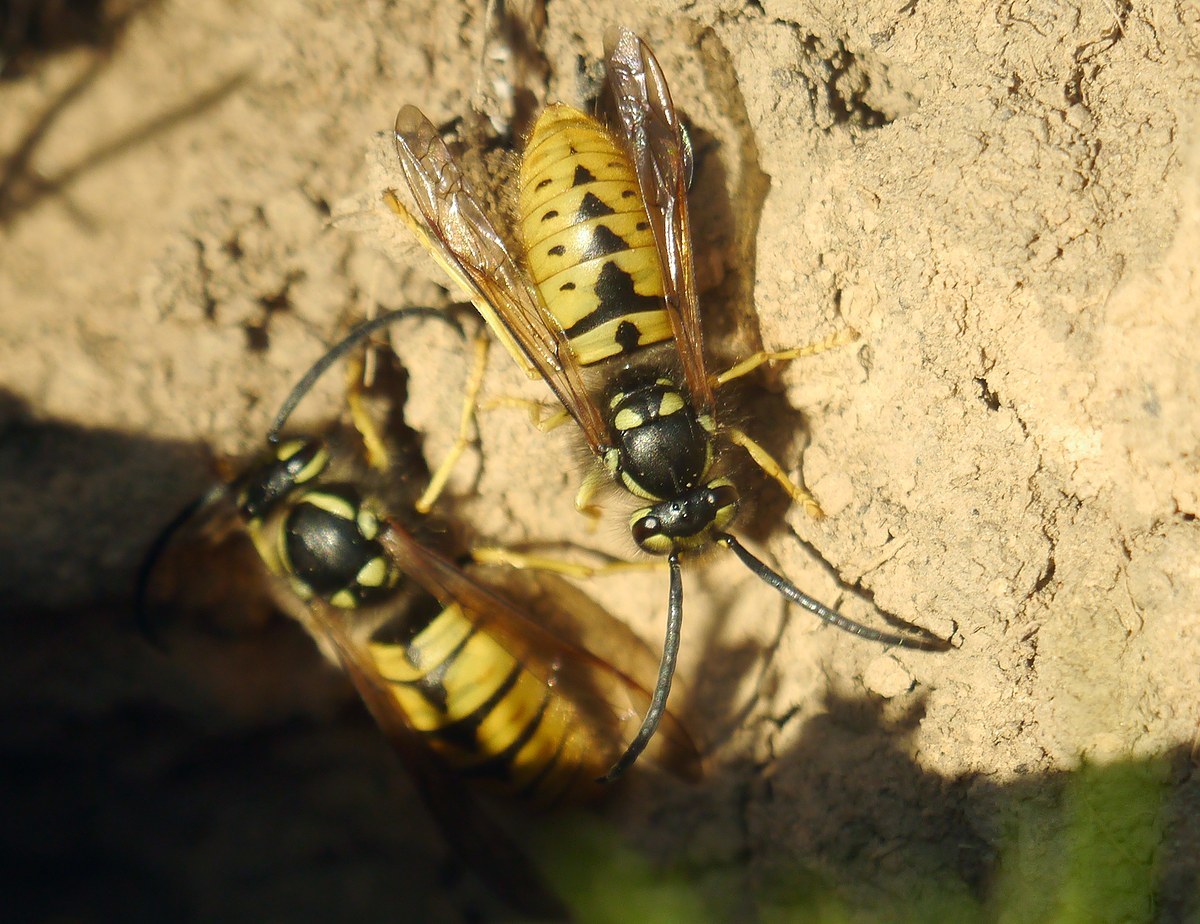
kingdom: Animalia
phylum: Arthropoda
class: Insecta
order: Hymenoptera
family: Vespidae
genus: Vespula
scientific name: Vespula germanica
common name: German wasp
